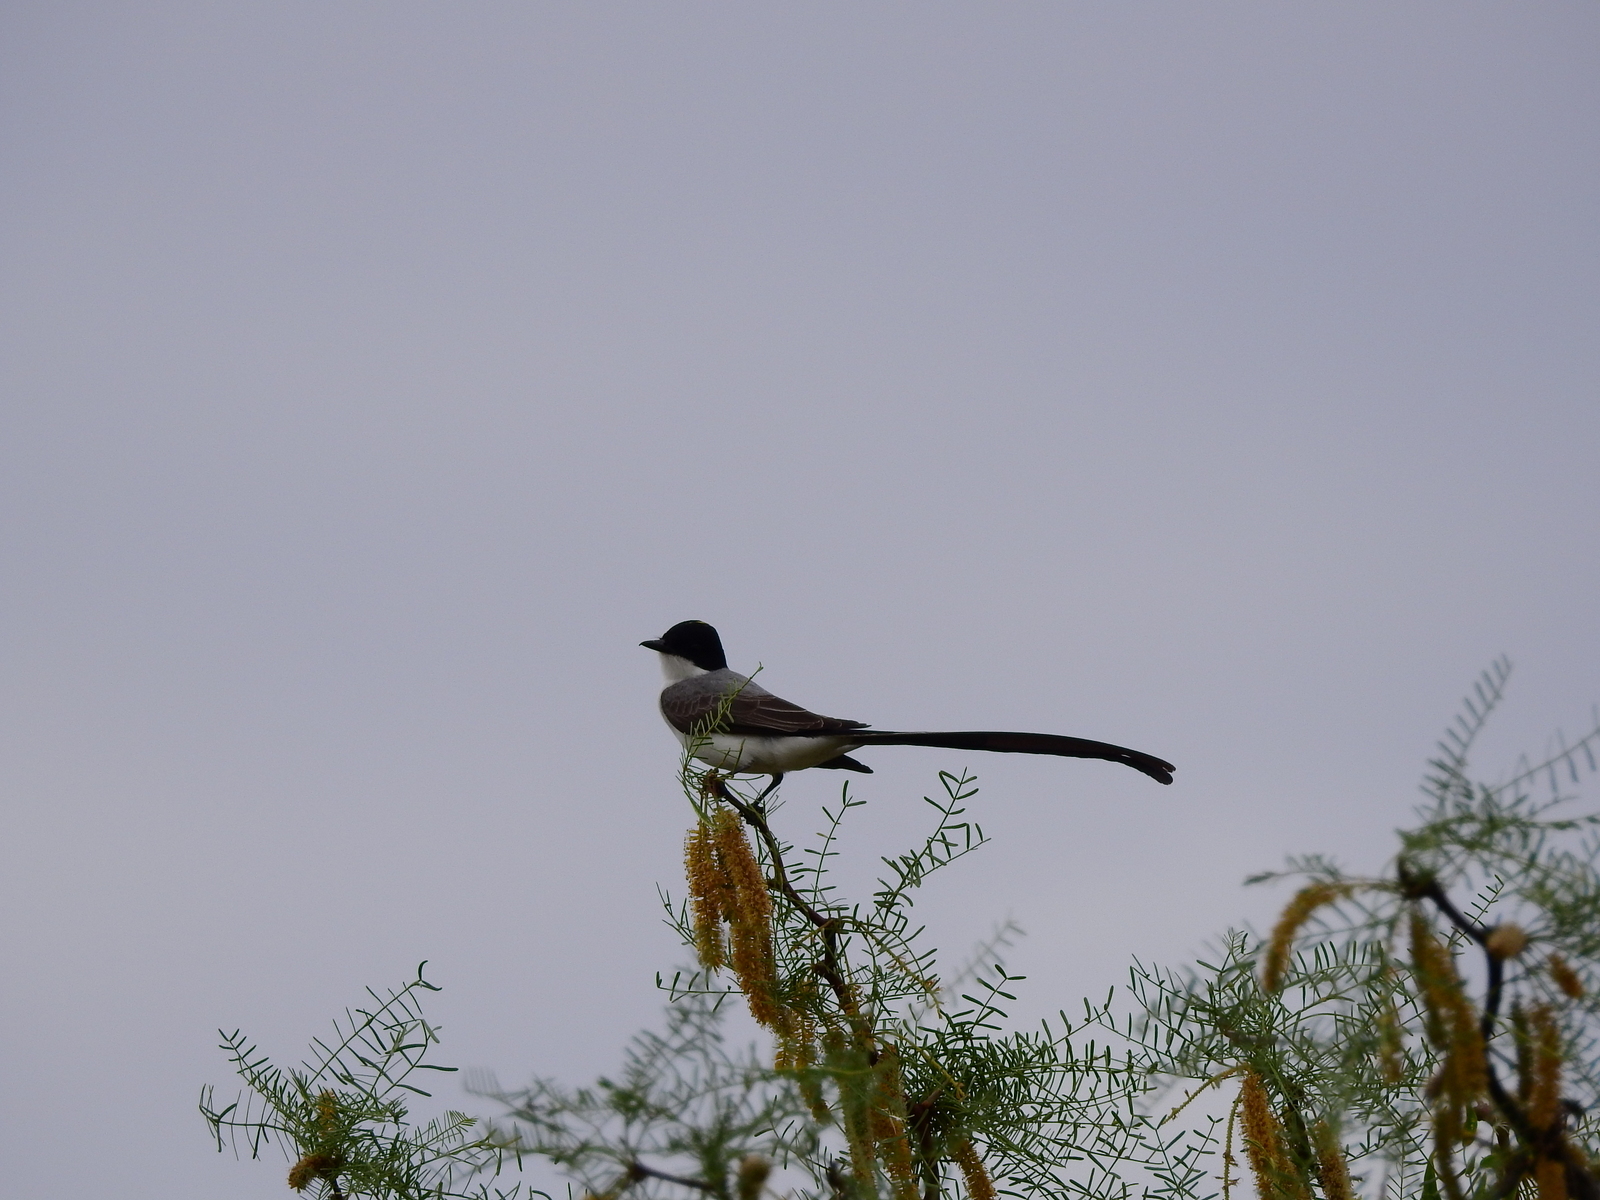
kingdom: Animalia
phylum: Chordata
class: Aves
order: Passeriformes
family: Tyrannidae
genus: Tyrannus
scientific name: Tyrannus savana
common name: Fork-tailed flycatcher
